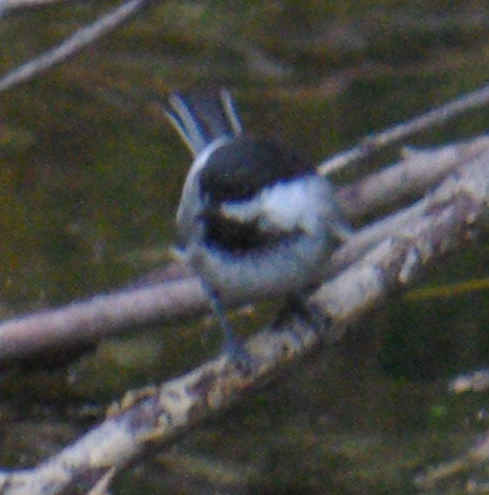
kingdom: Animalia
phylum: Chordata
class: Aves
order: Passeriformes
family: Paridae
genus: Poecile
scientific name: Poecile atricapillus
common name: Black-capped chickadee
